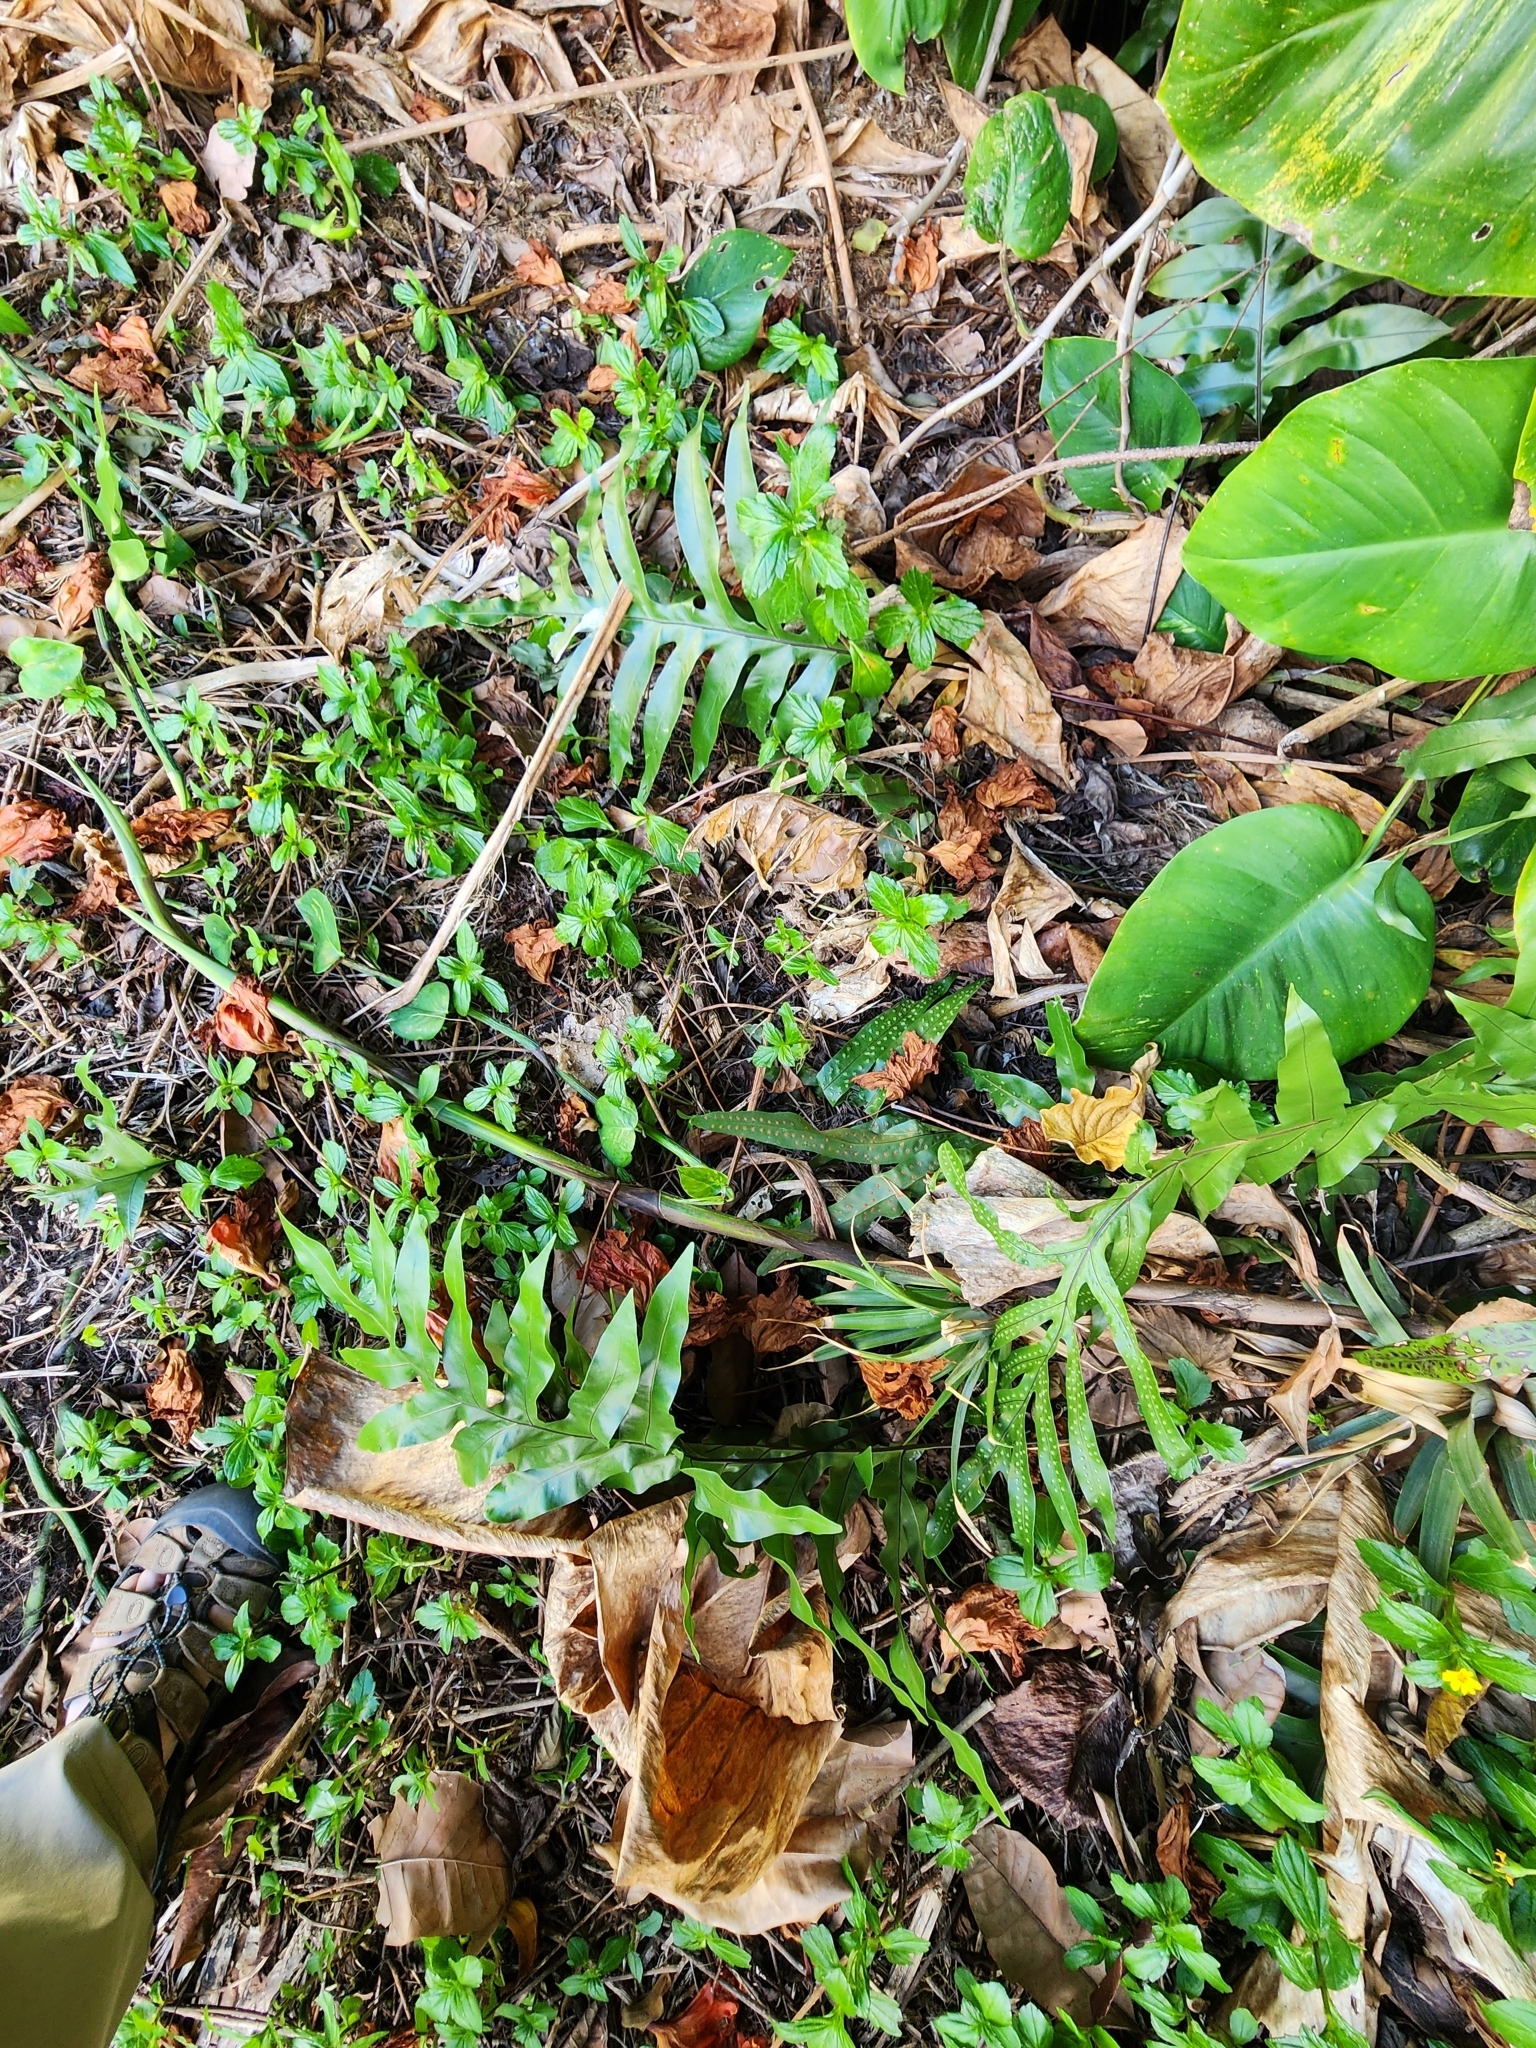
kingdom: Plantae
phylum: Tracheophyta
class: Polypodiopsida
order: Polypodiales
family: Polypodiaceae
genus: Microsorum
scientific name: Microsorum grossum
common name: Musk fern
